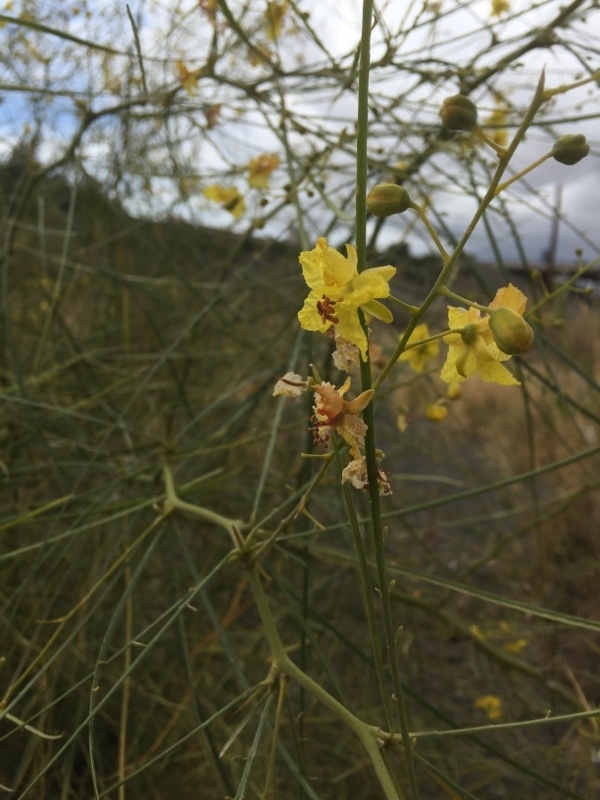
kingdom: Plantae
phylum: Tracheophyta
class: Magnoliopsida
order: Fabales
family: Fabaceae
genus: Parkinsonia
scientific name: Parkinsonia aculeata
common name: Jerusalem thorn
